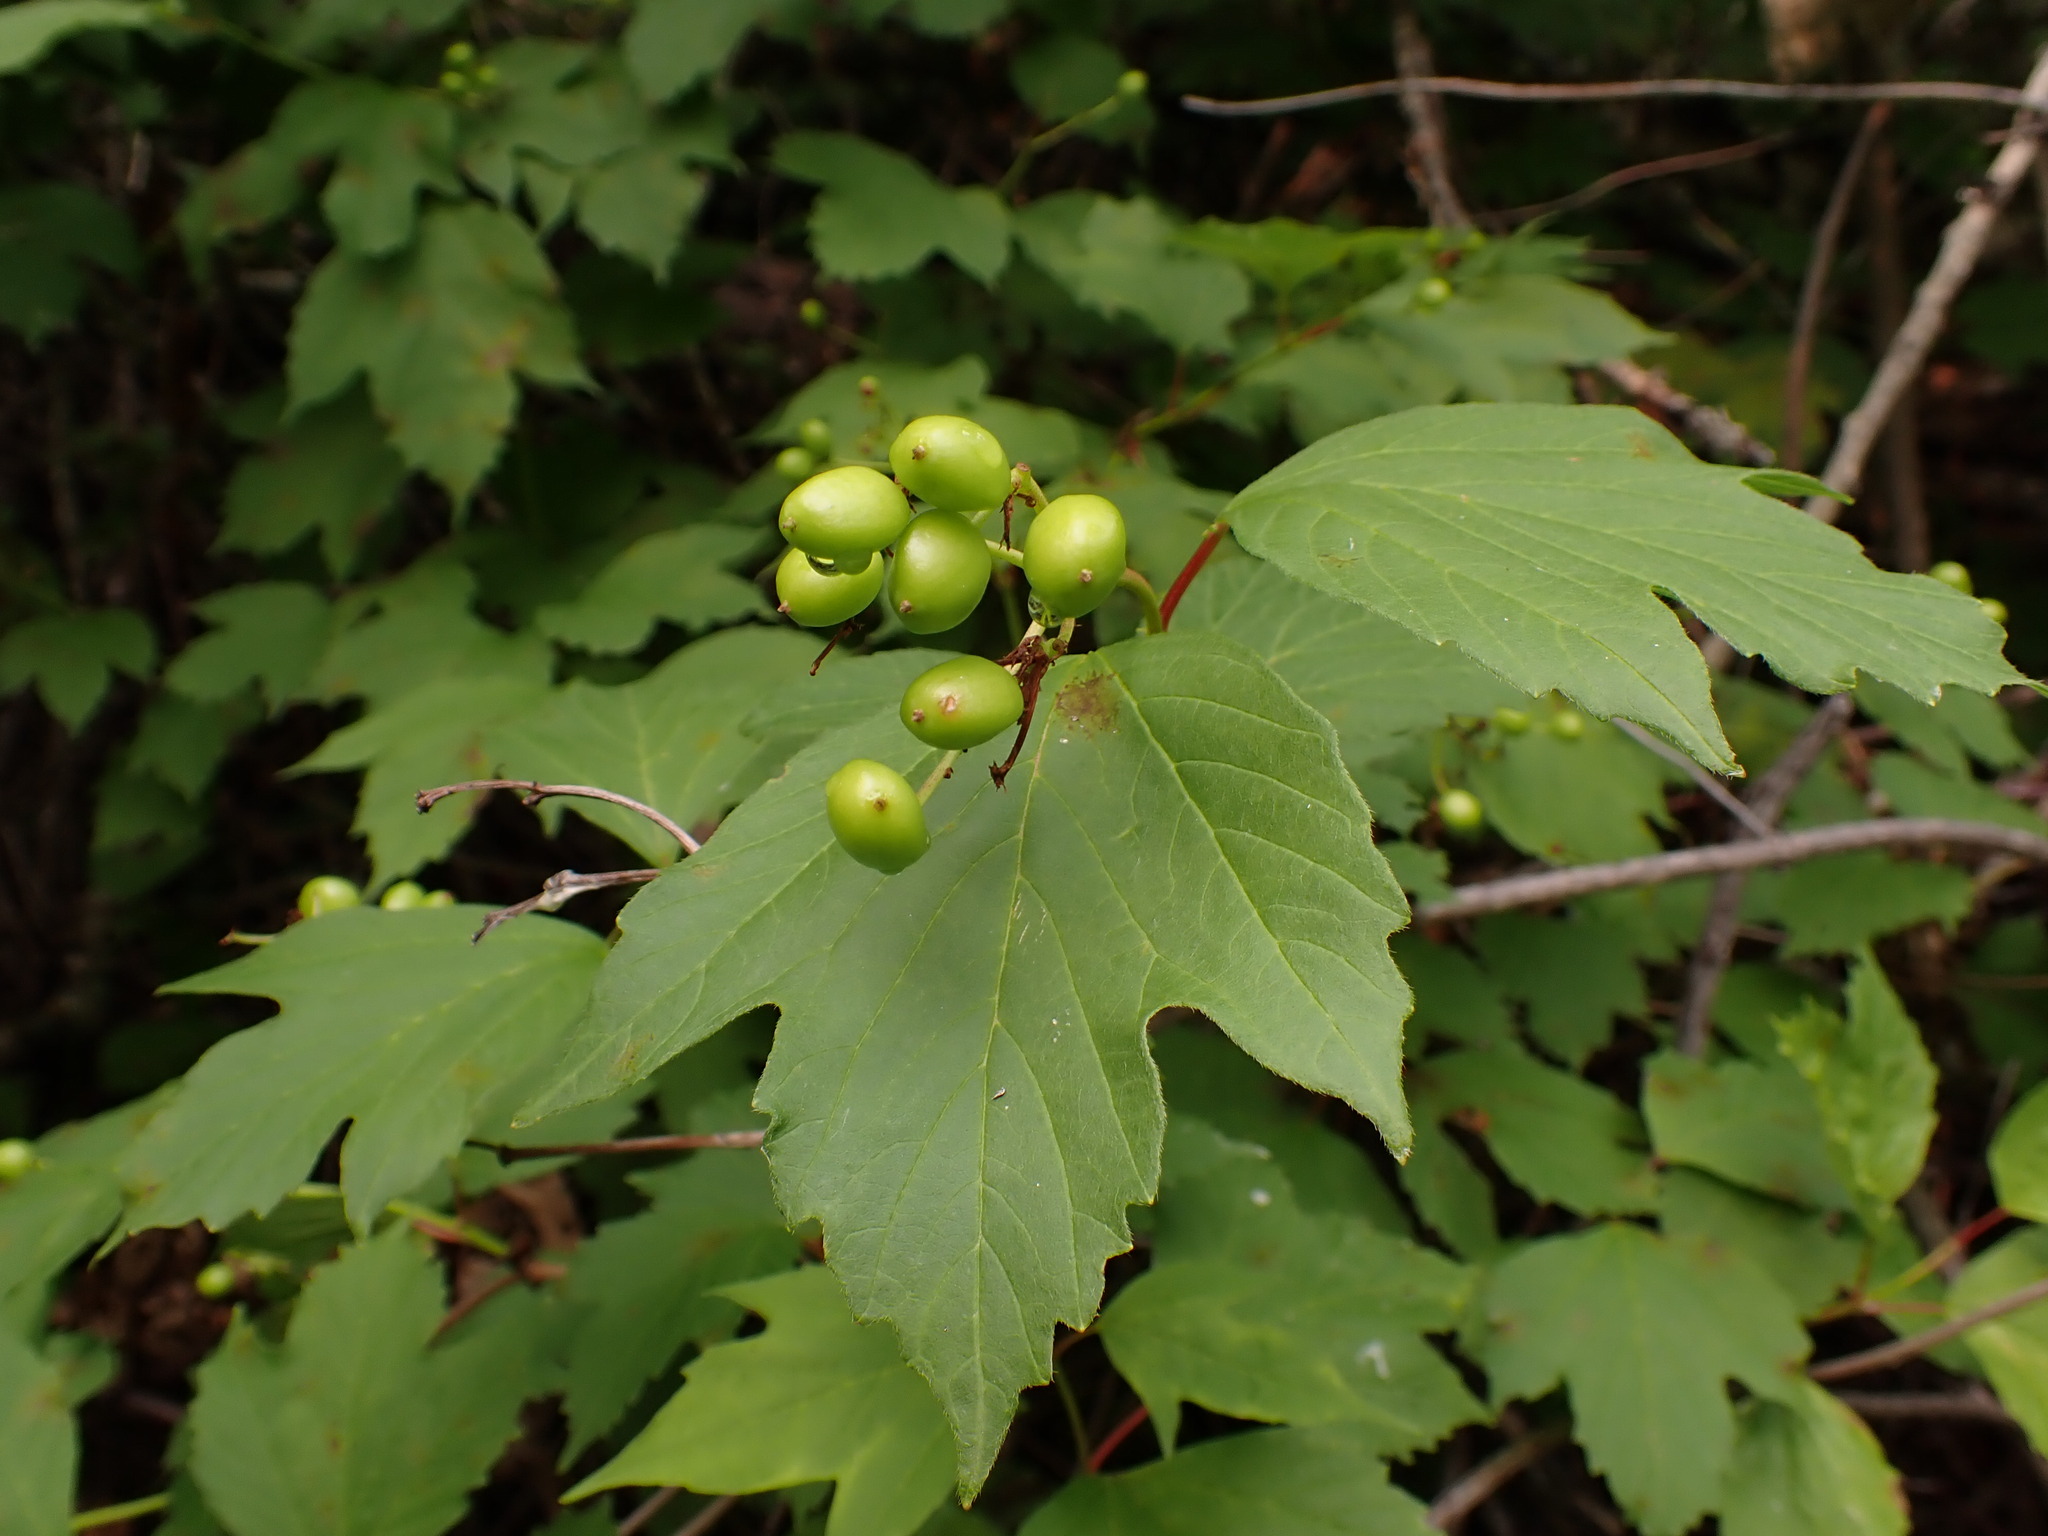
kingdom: Plantae
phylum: Tracheophyta
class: Magnoliopsida
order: Dipsacales
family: Viburnaceae
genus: Viburnum
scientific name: Viburnum opulus
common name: Guelder-rose
